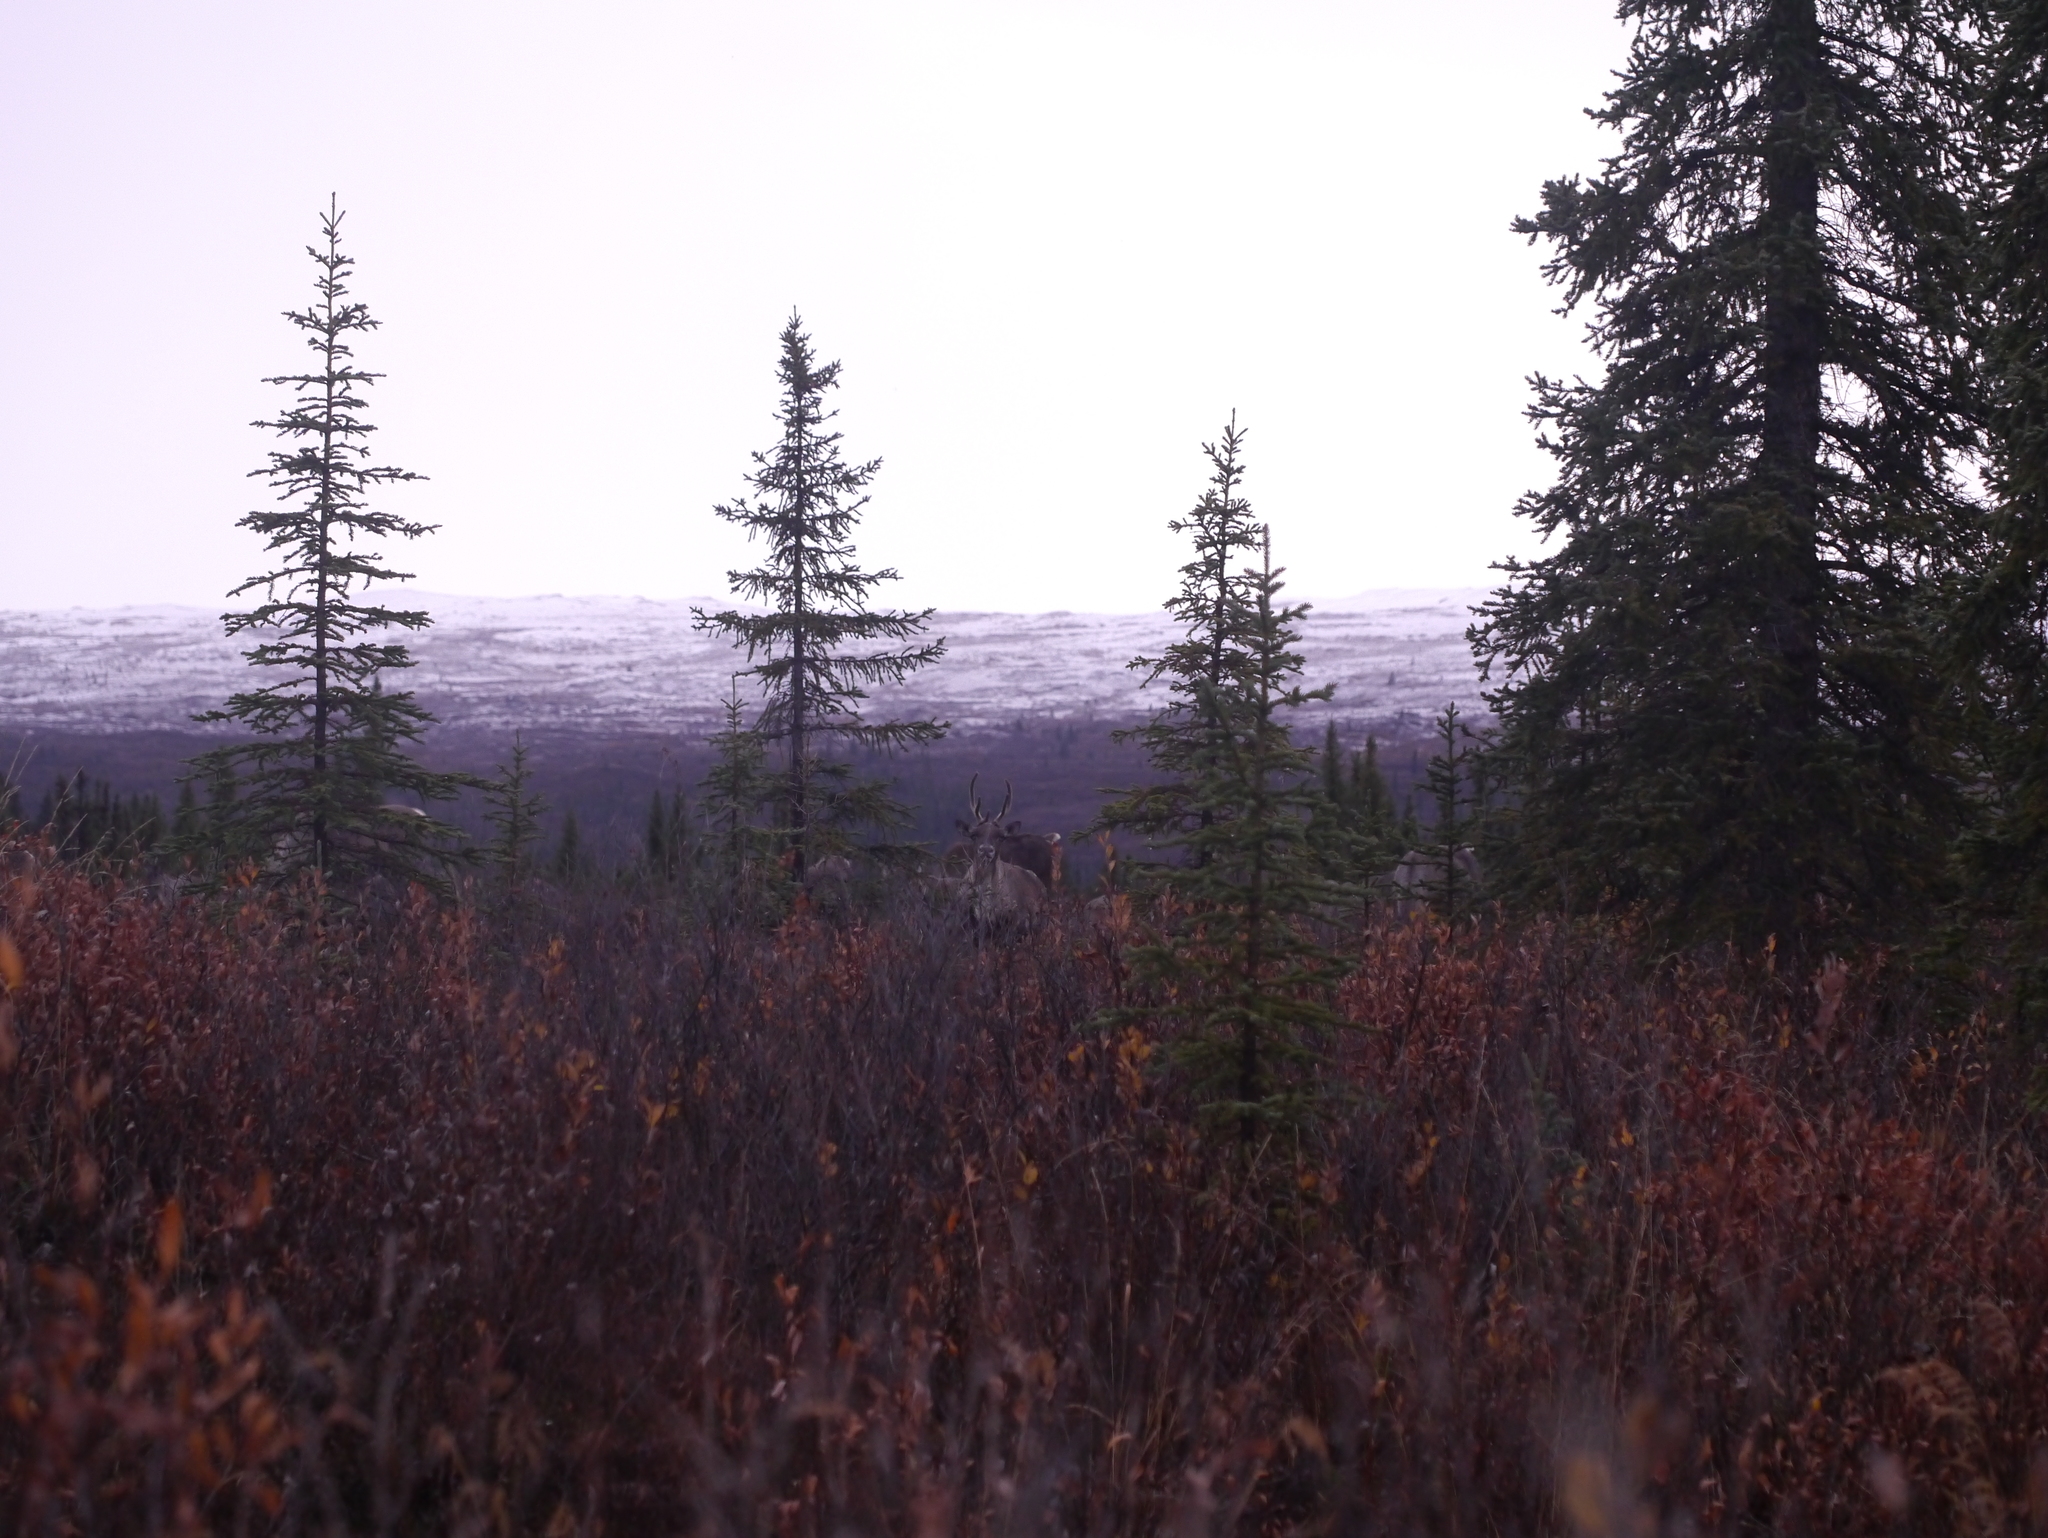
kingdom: Animalia
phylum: Chordata
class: Mammalia
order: Artiodactyla
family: Cervidae
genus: Rangifer
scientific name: Rangifer tarandus
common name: Reindeer
